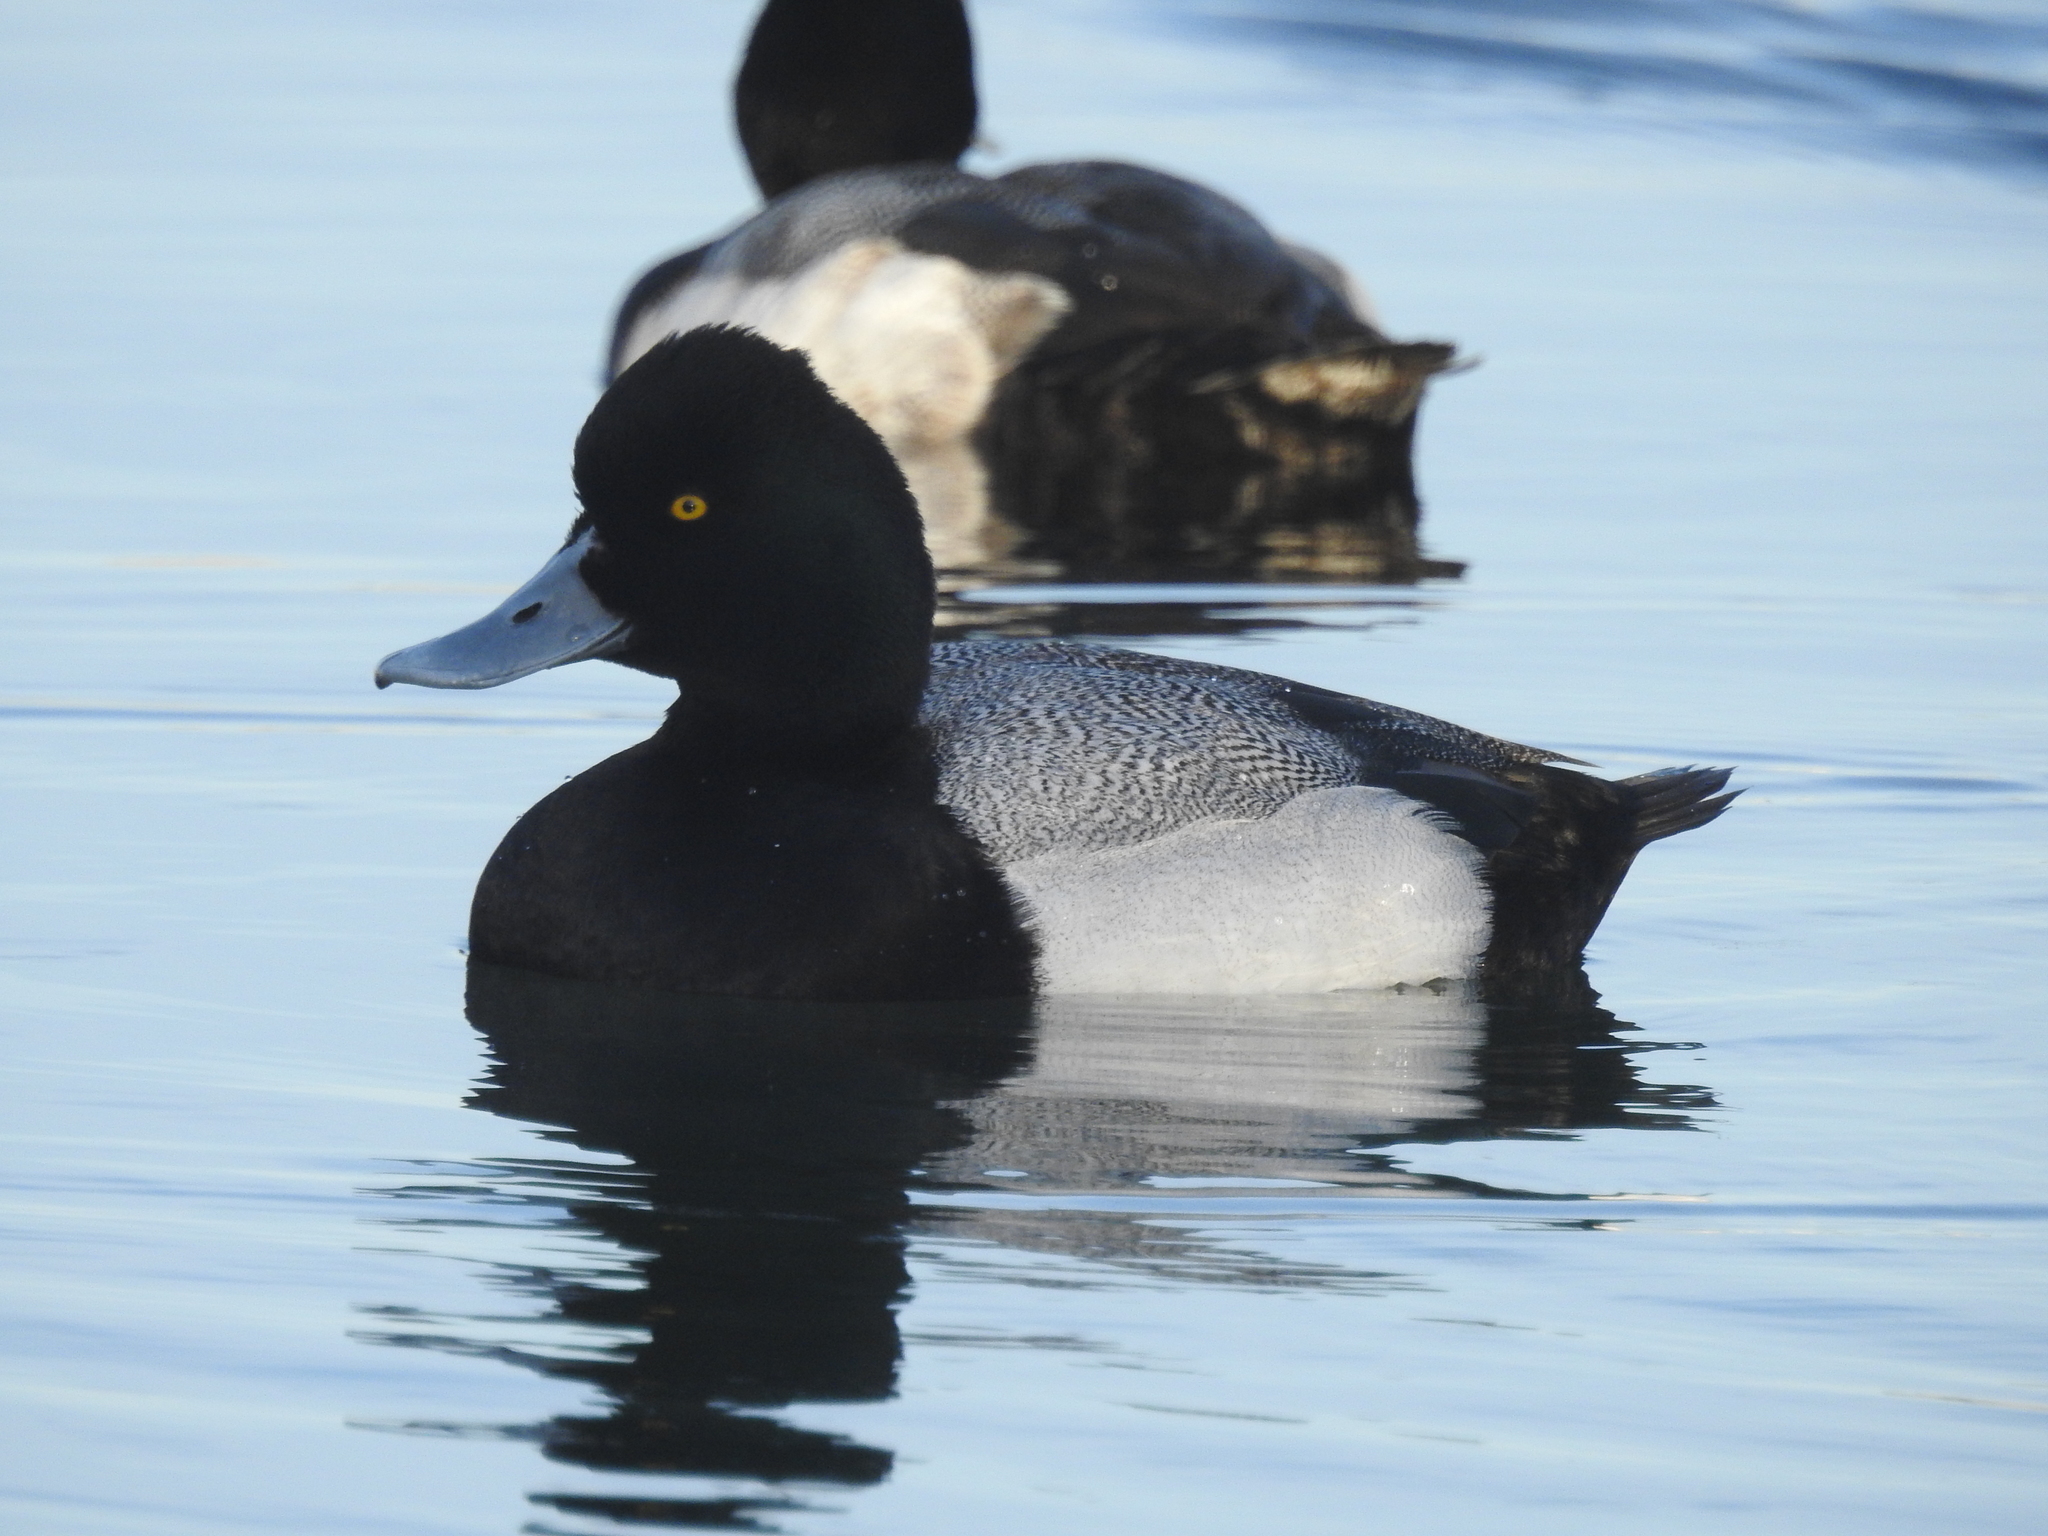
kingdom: Animalia
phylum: Chordata
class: Aves
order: Anseriformes
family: Anatidae
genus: Aythya
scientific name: Aythya affinis
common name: Lesser scaup
